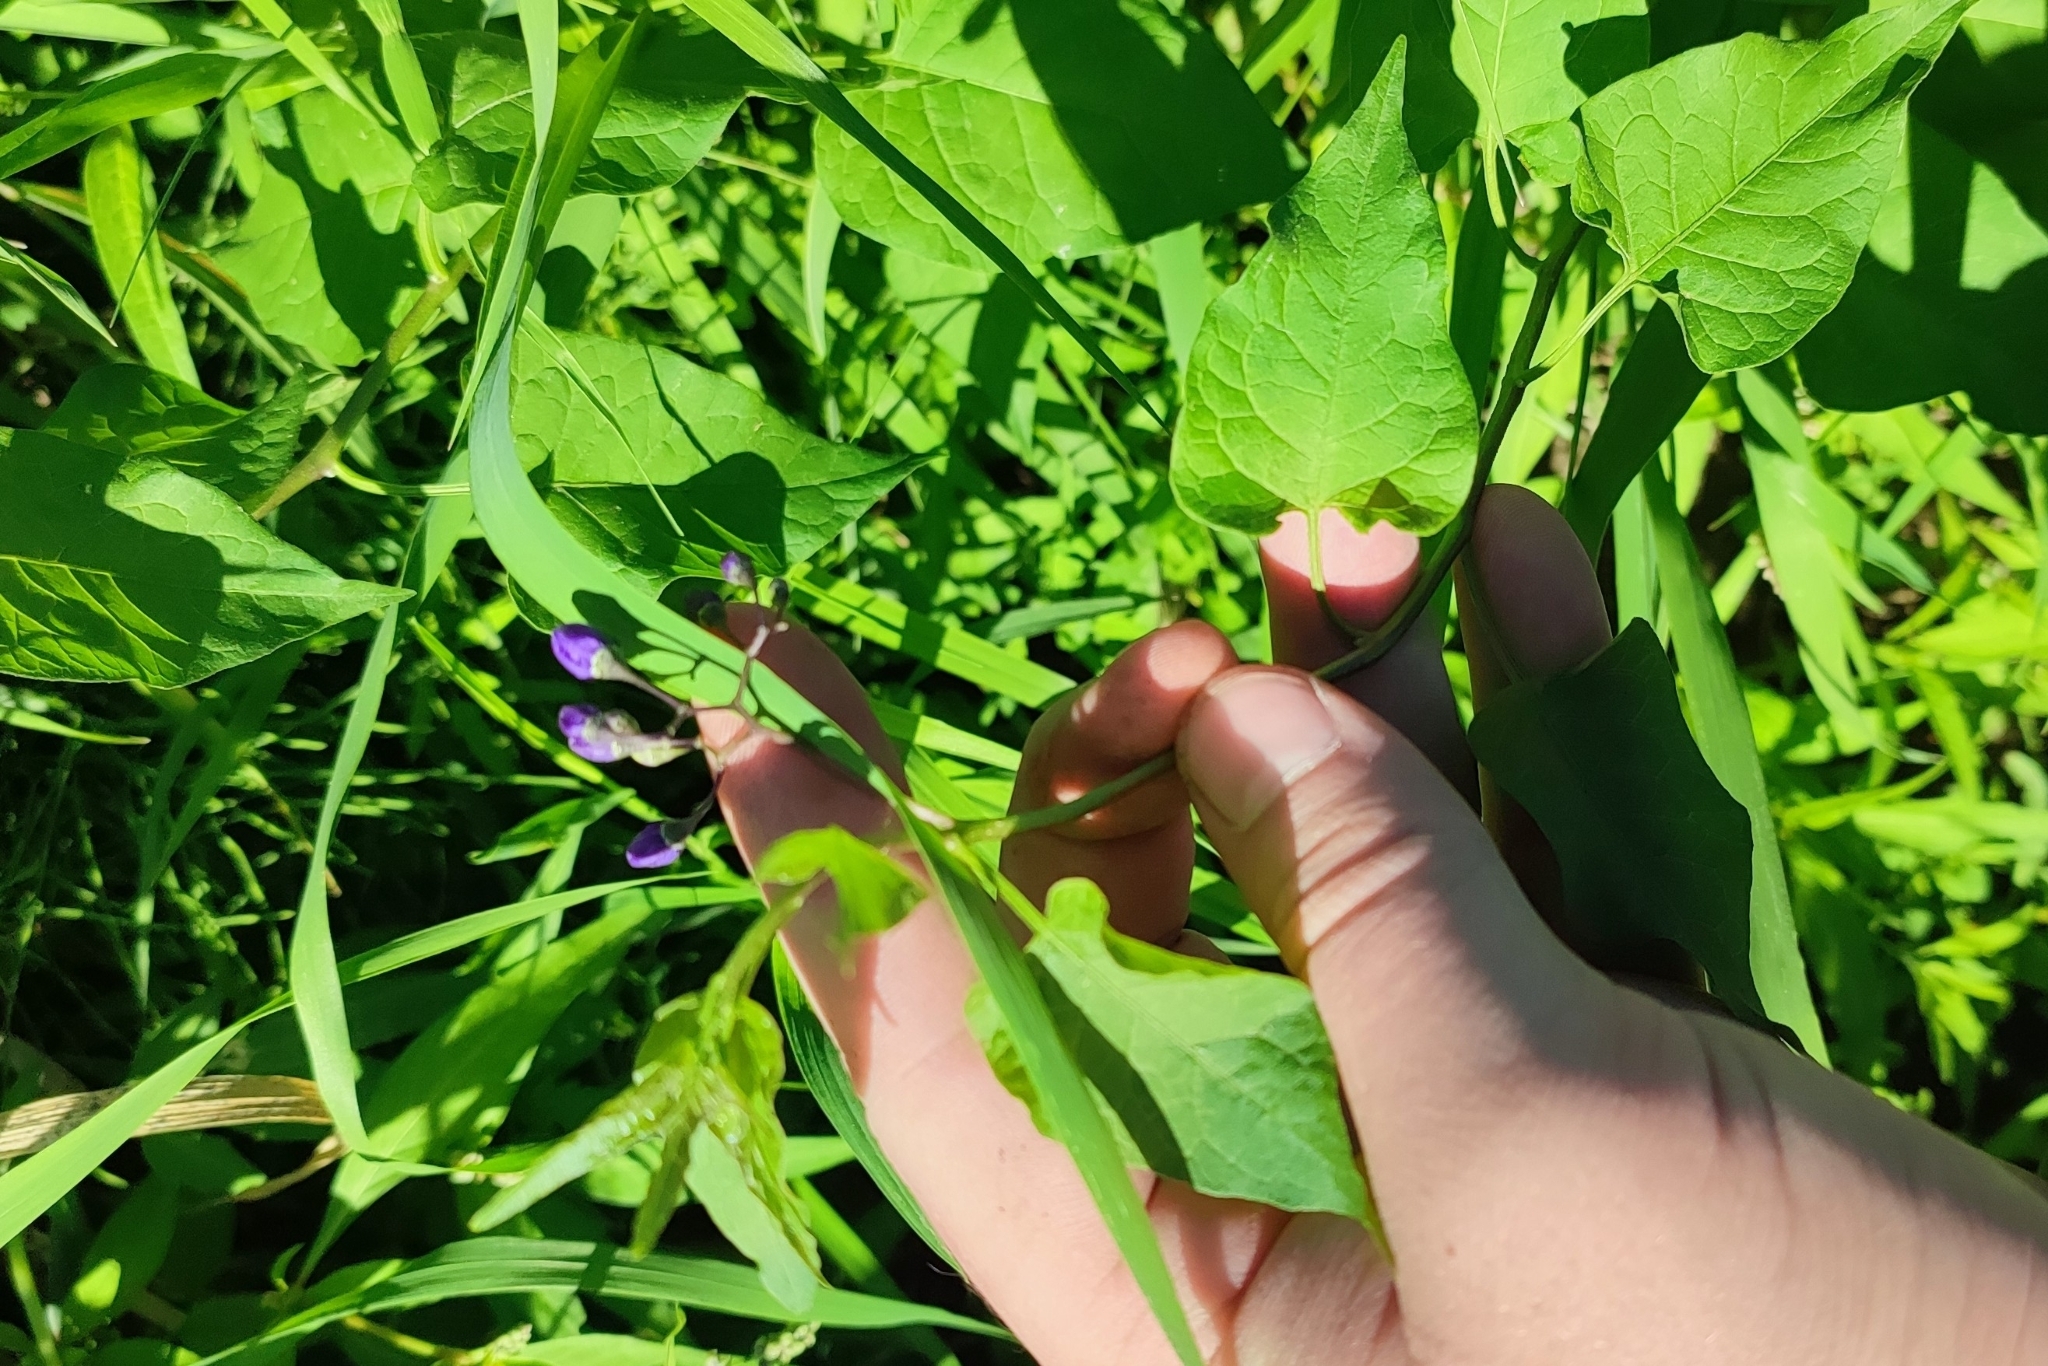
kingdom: Plantae
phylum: Tracheophyta
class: Magnoliopsida
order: Solanales
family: Solanaceae
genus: Solanum
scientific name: Solanum dulcamara
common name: Climbing nightshade
